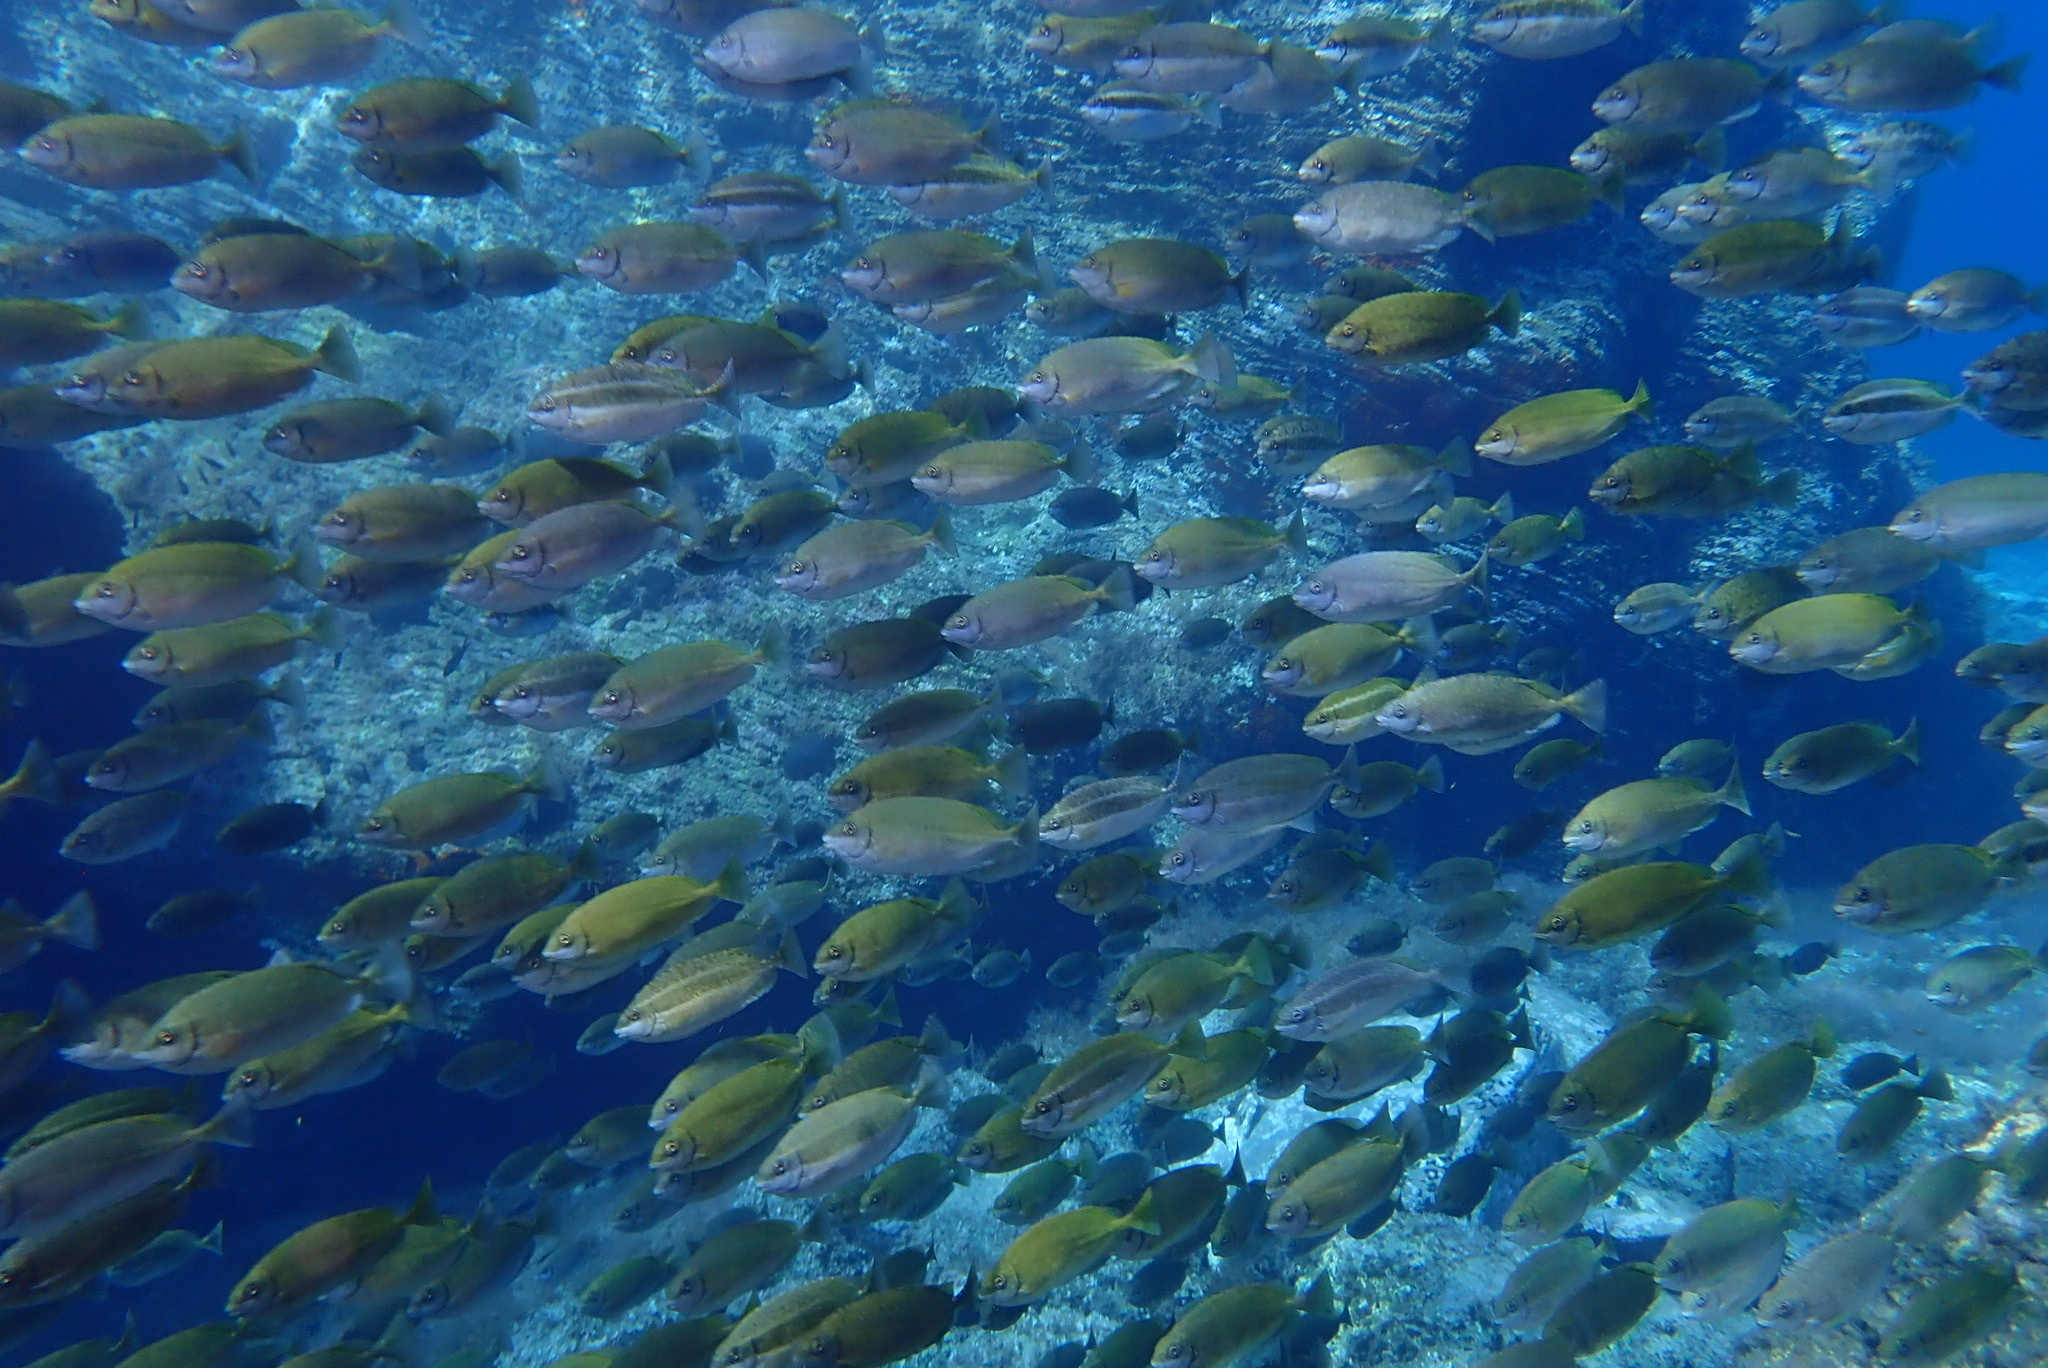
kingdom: Animalia
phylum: Chordata
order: Perciformes
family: Siganidae
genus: Siganus
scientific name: Siganus luridus
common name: Dusky spinefoot
